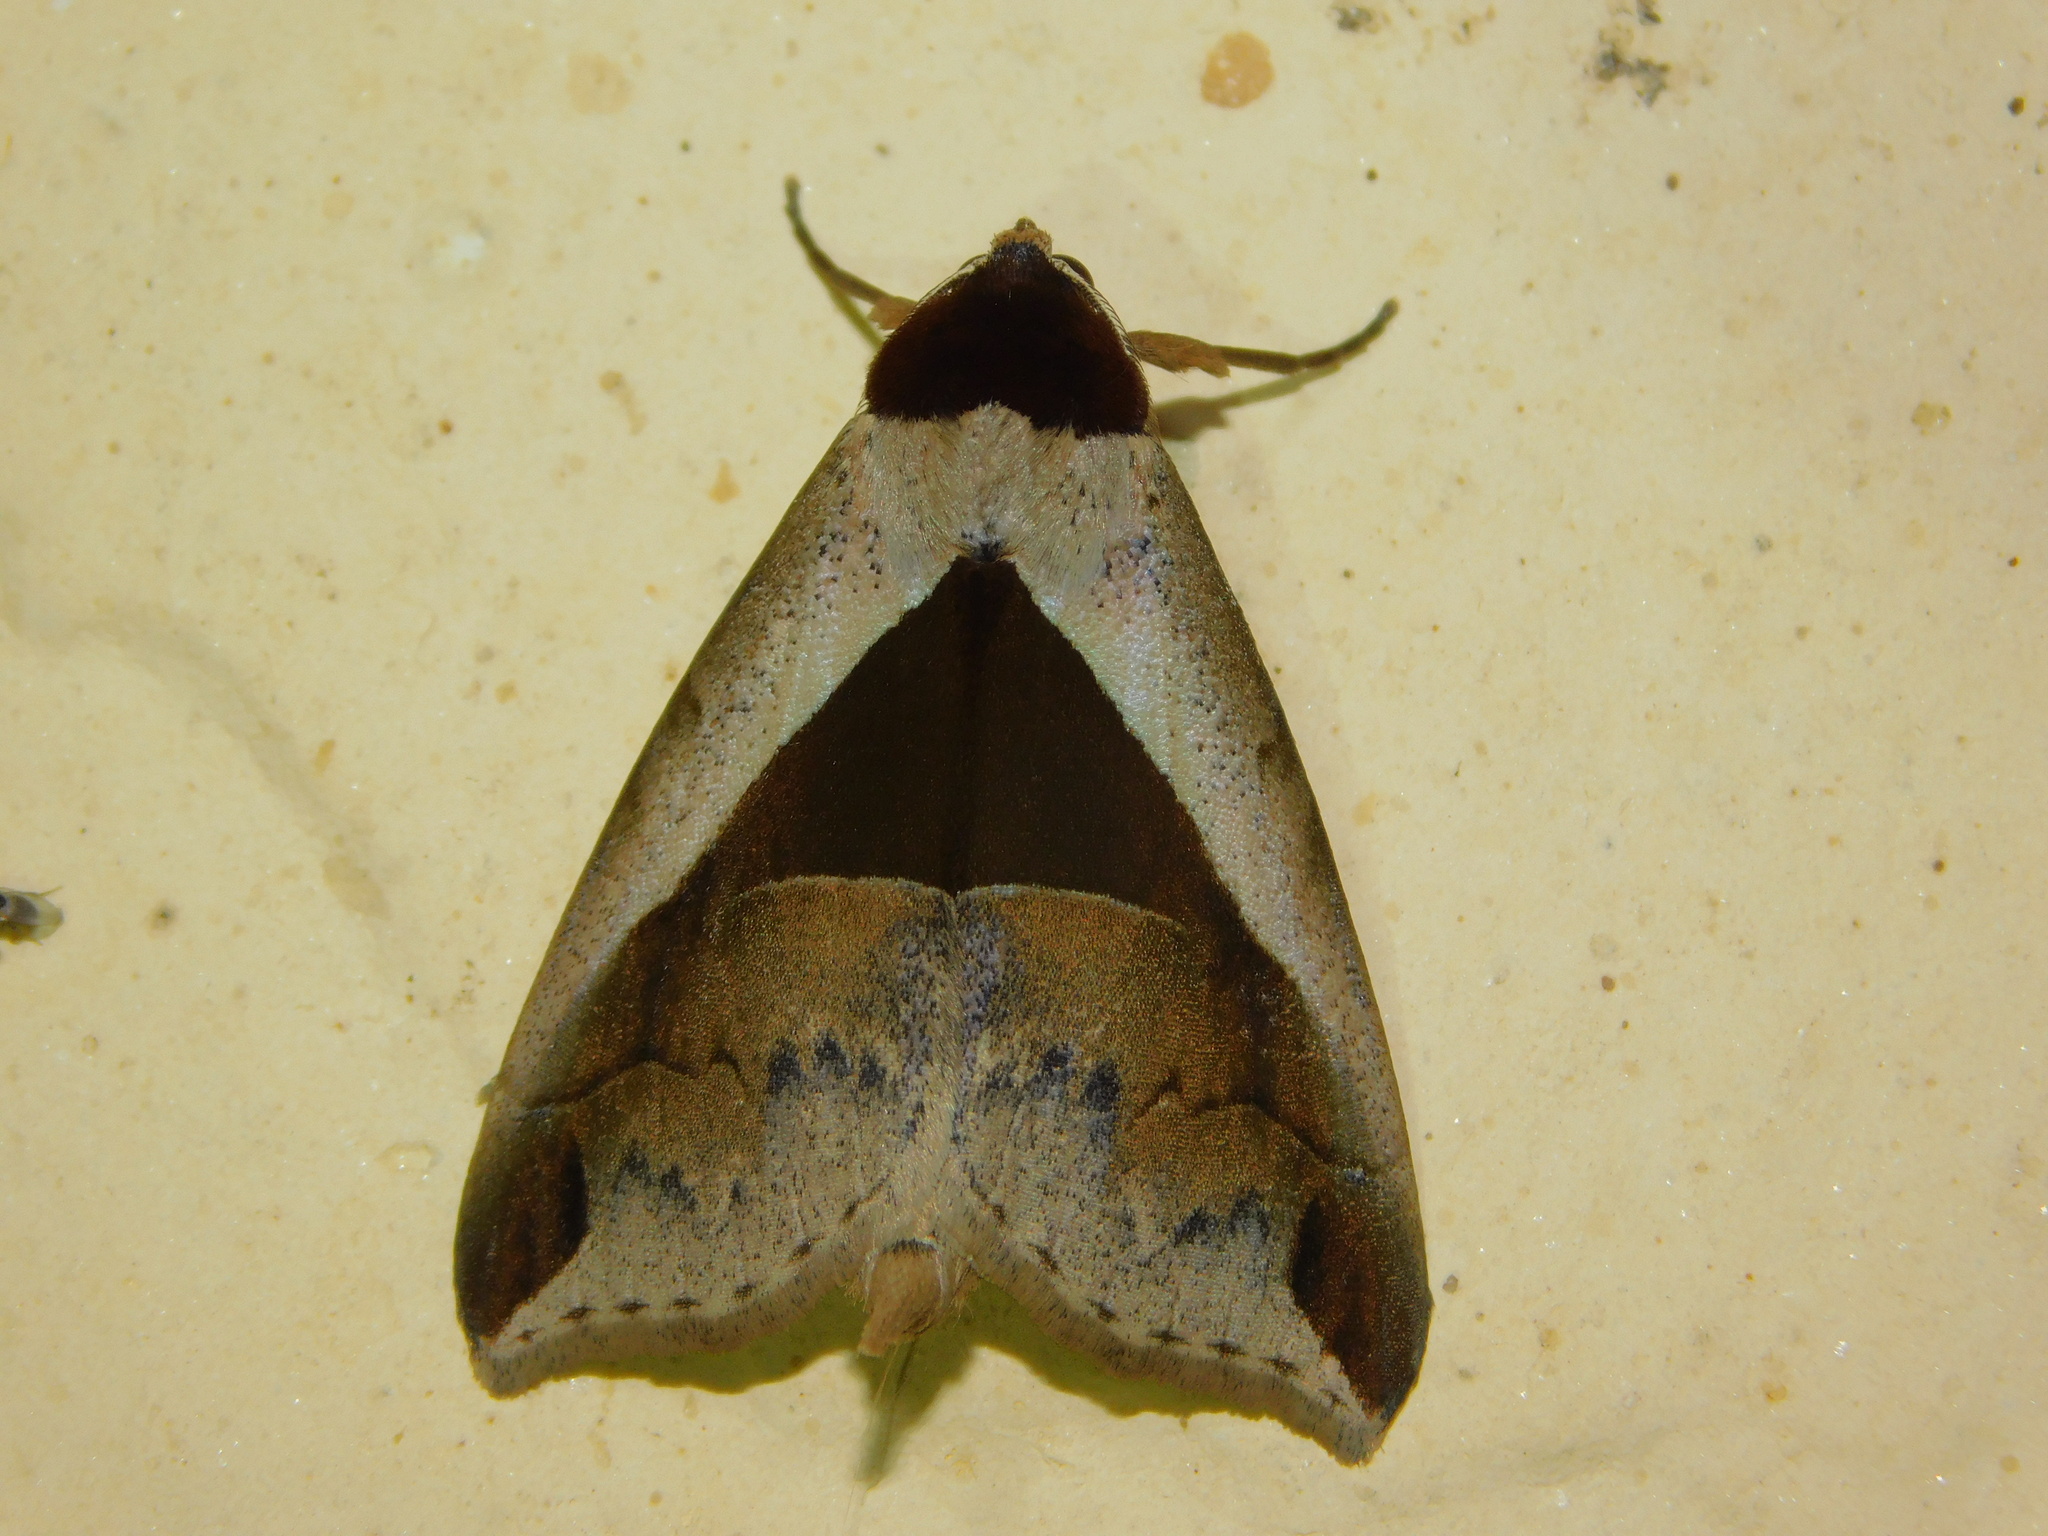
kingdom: Animalia
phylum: Arthropoda
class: Insecta
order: Lepidoptera
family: Erebidae
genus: Anoba
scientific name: Anoba biangulata
